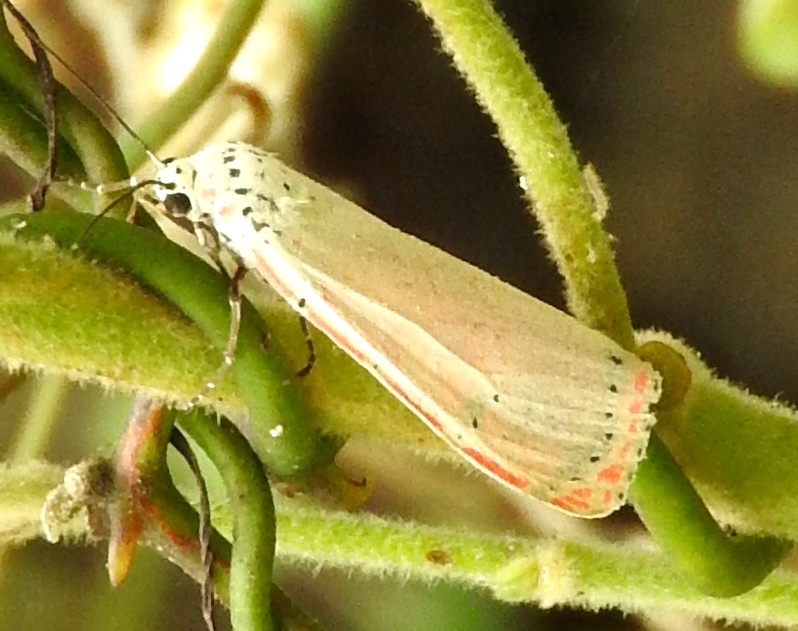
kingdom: Animalia
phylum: Arthropoda
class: Insecta
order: Lepidoptera
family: Erebidae
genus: Utetheisa
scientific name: Utetheisa ornatrix
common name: Beautiful utetheisa
